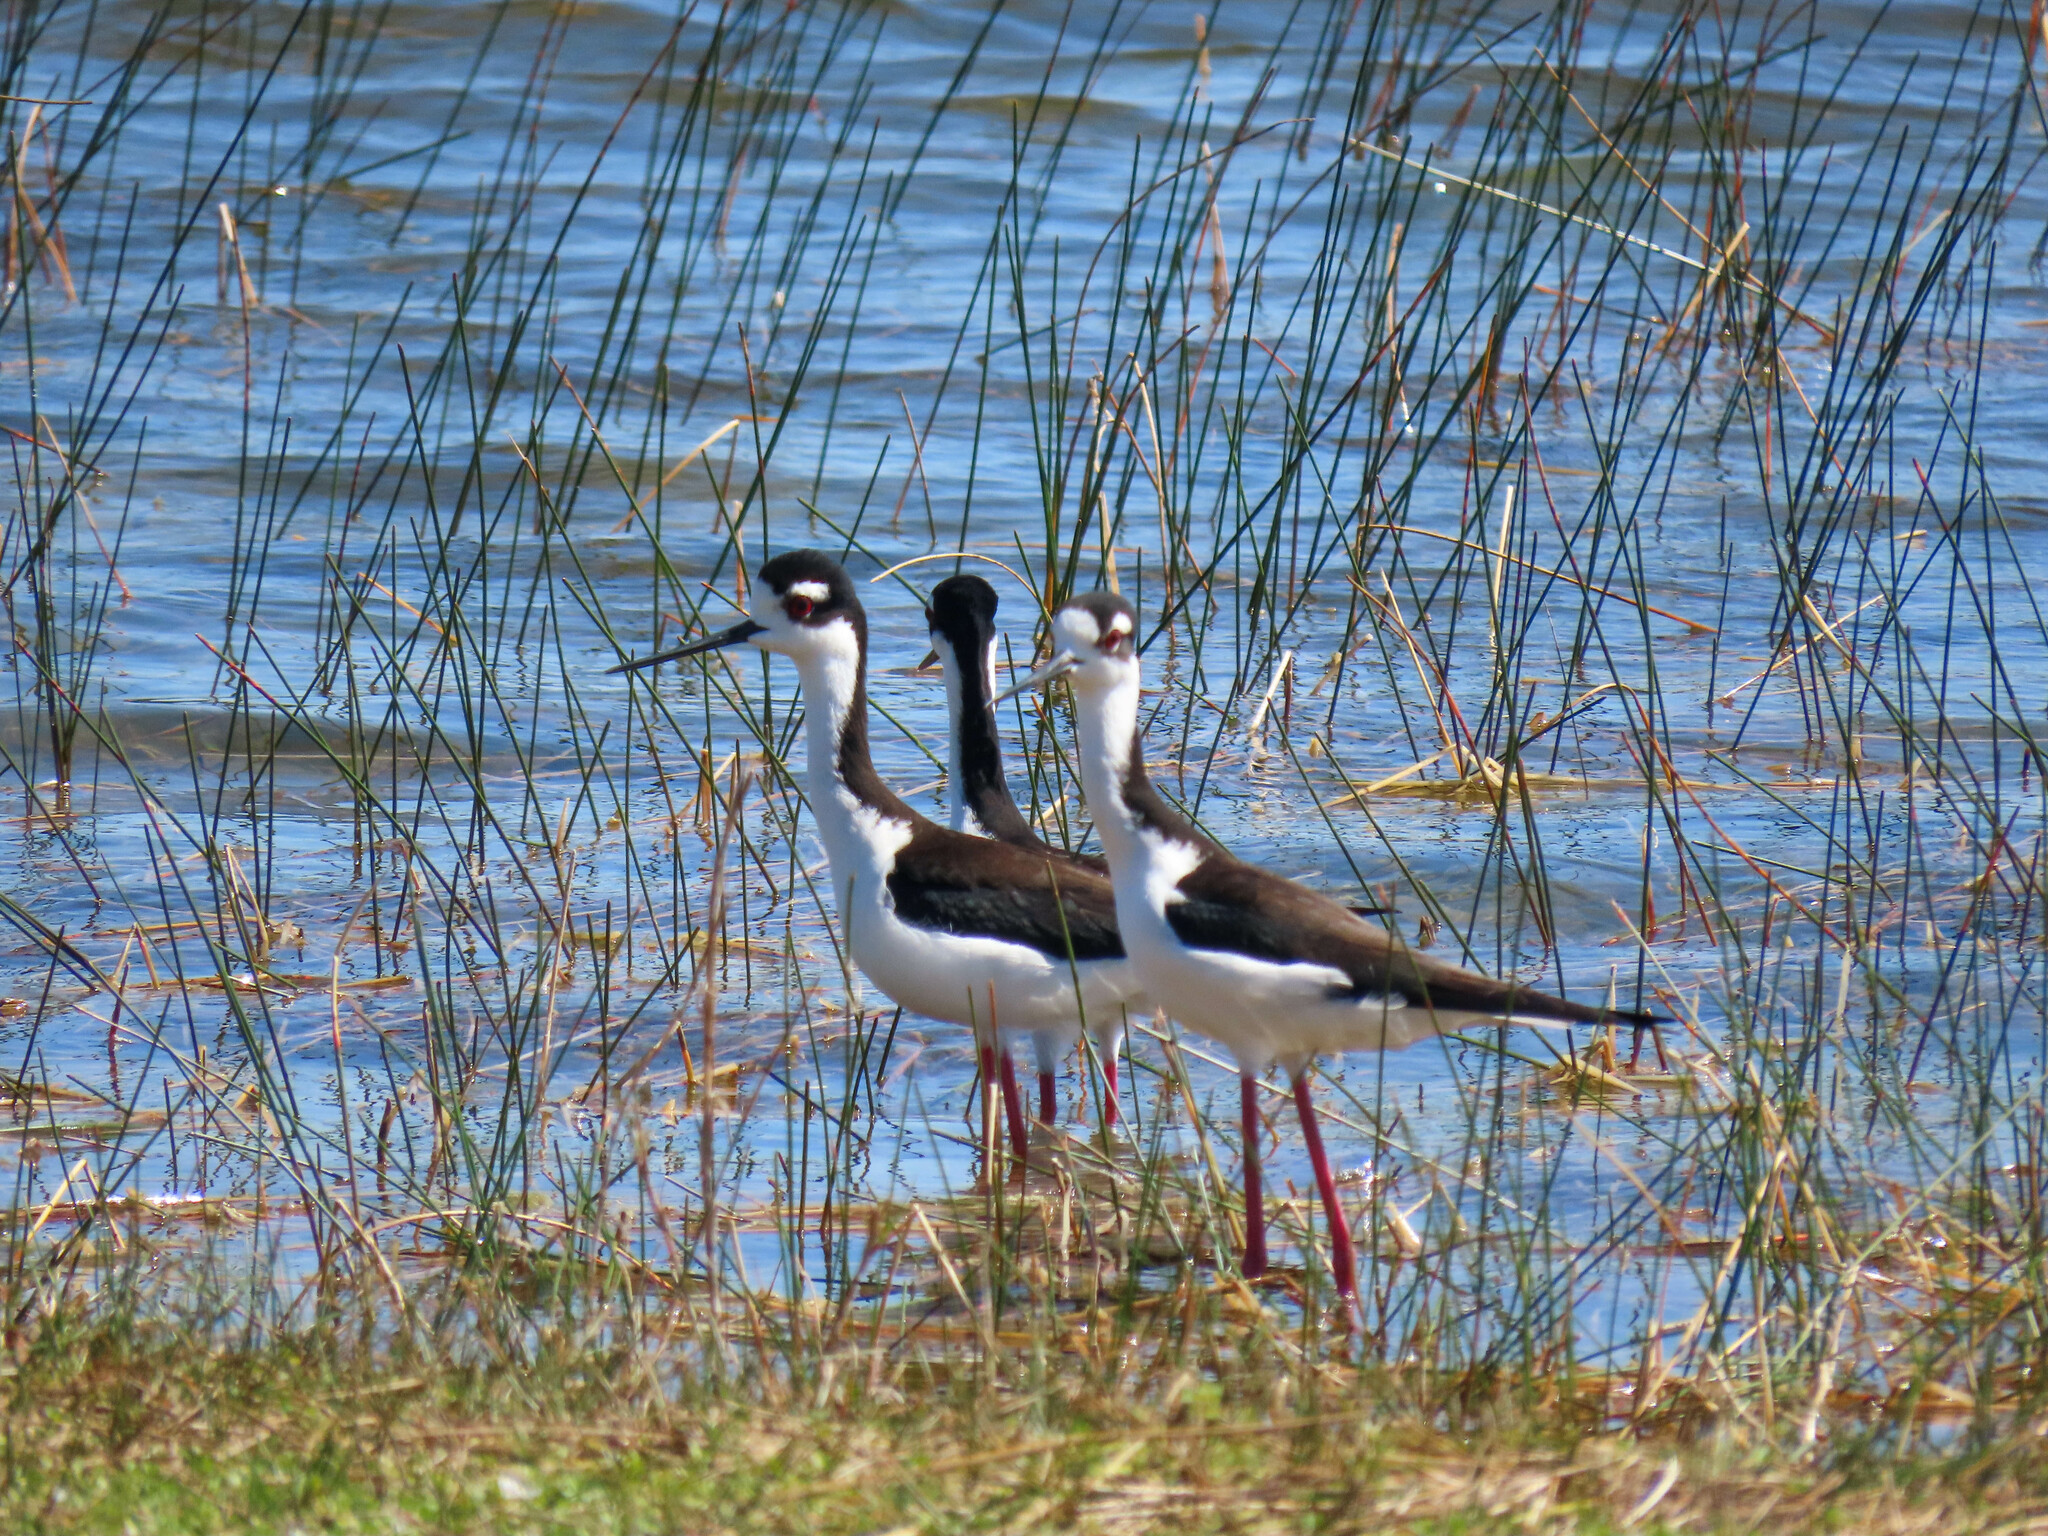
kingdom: Animalia
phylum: Chordata
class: Aves
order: Charadriiformes
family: Recurvirostridae
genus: Himantopus
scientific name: Himantopus mexicanus
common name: Black-necked stilt
